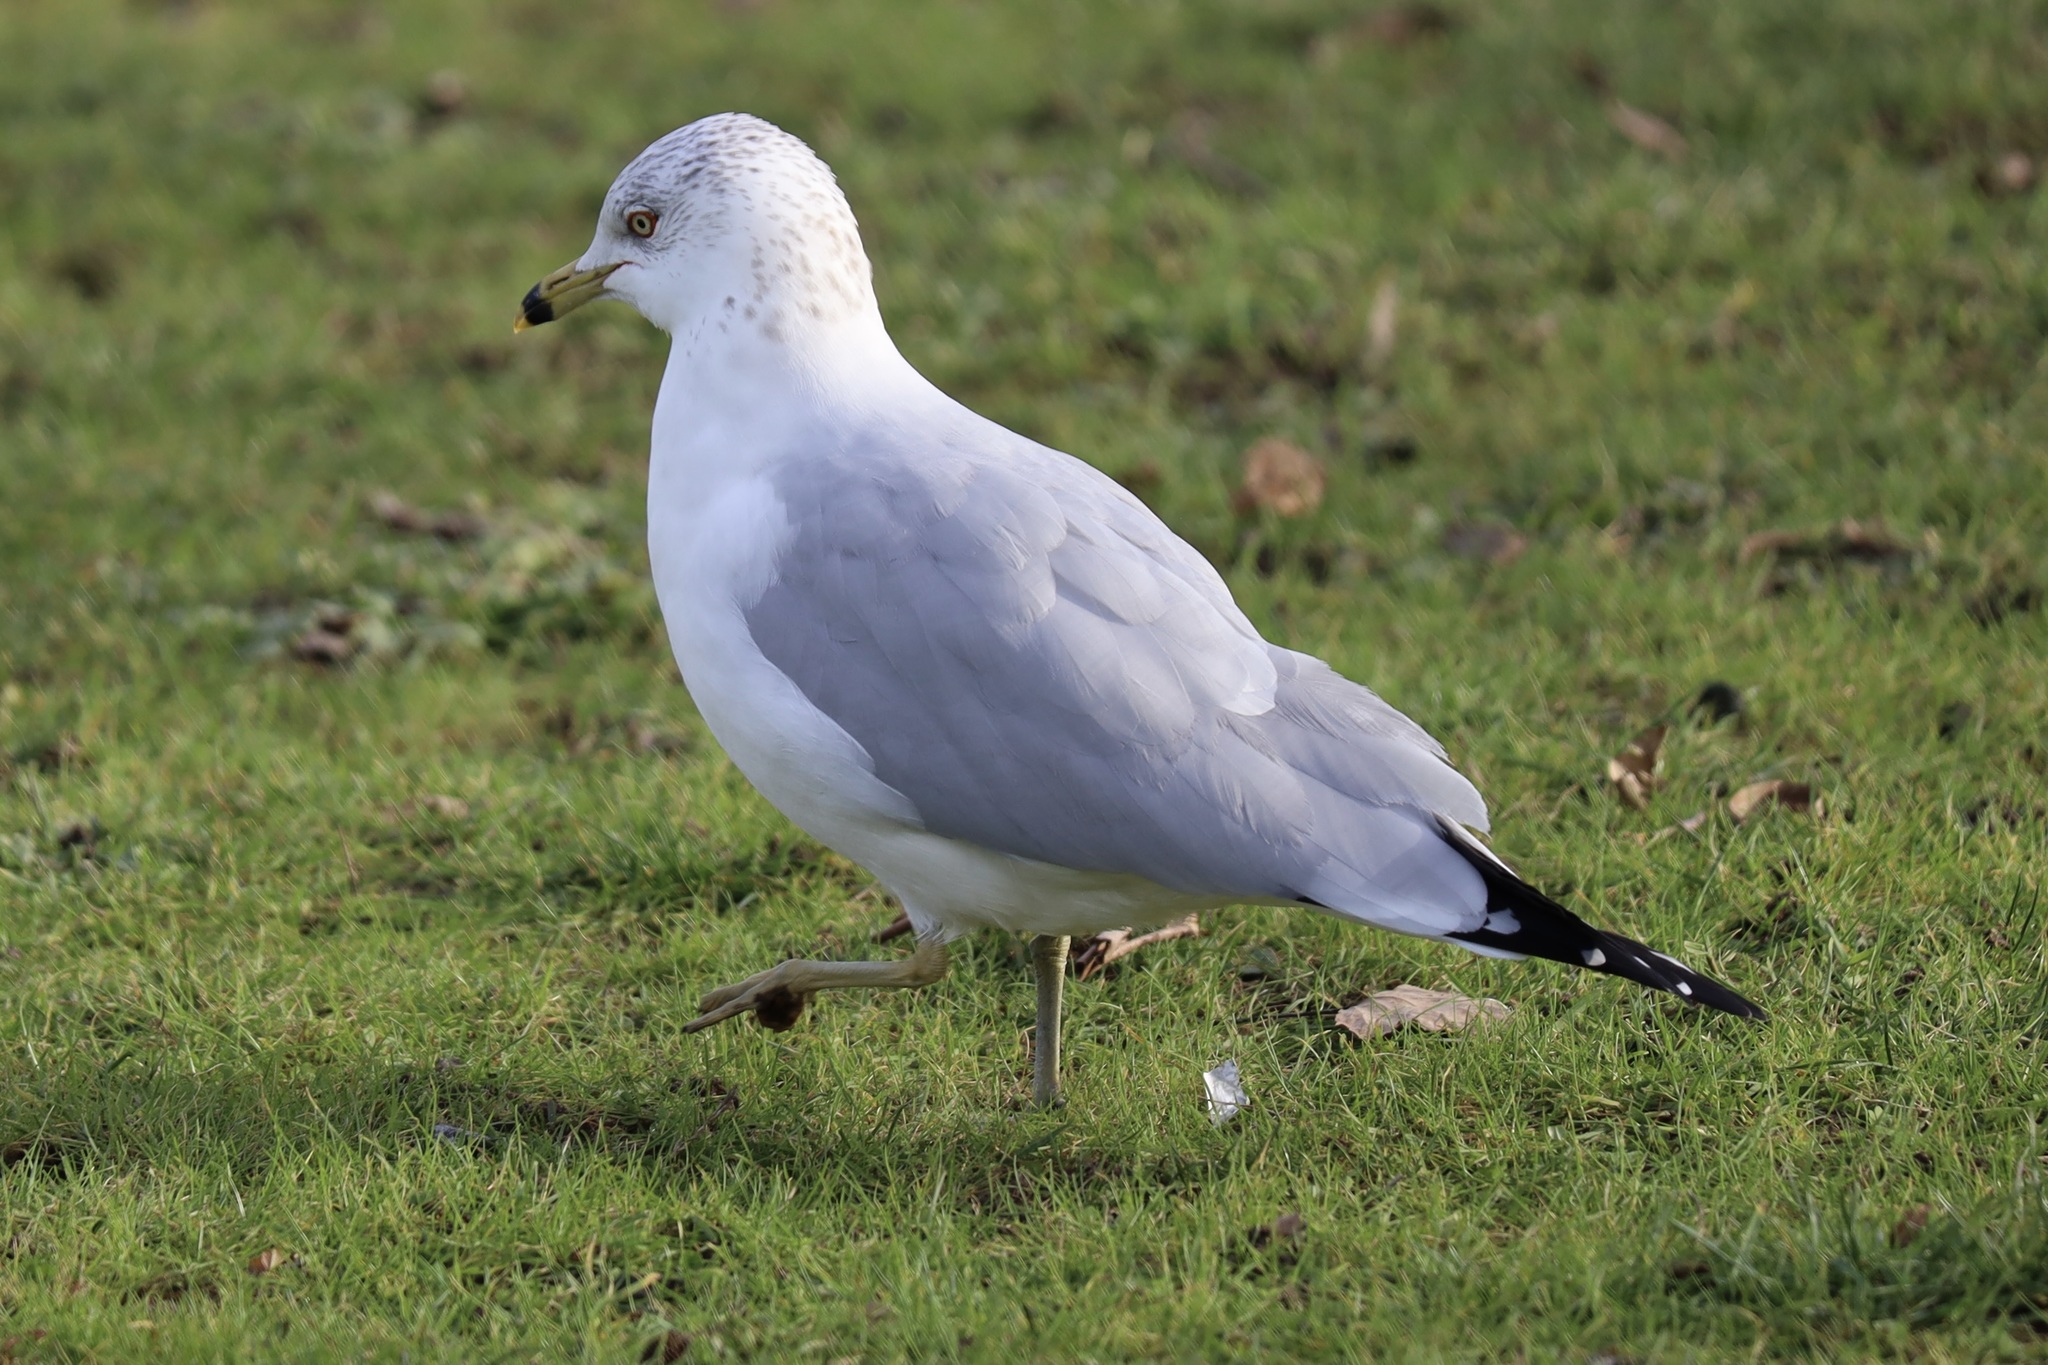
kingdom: Animalia
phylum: Chordata
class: Aves
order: Charadriiformes
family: Laridae
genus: Larus
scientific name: Larus delawarensis
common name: Ring-billed gull
